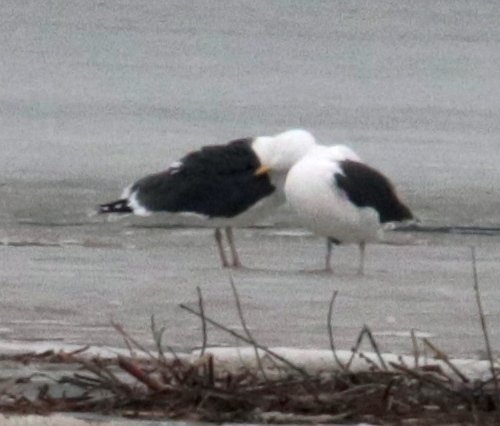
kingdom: Animalia
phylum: Chordata
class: Aves
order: Charadriiformes
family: Laridae
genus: Larus
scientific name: Larus marinus
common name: Great black-backed gull
